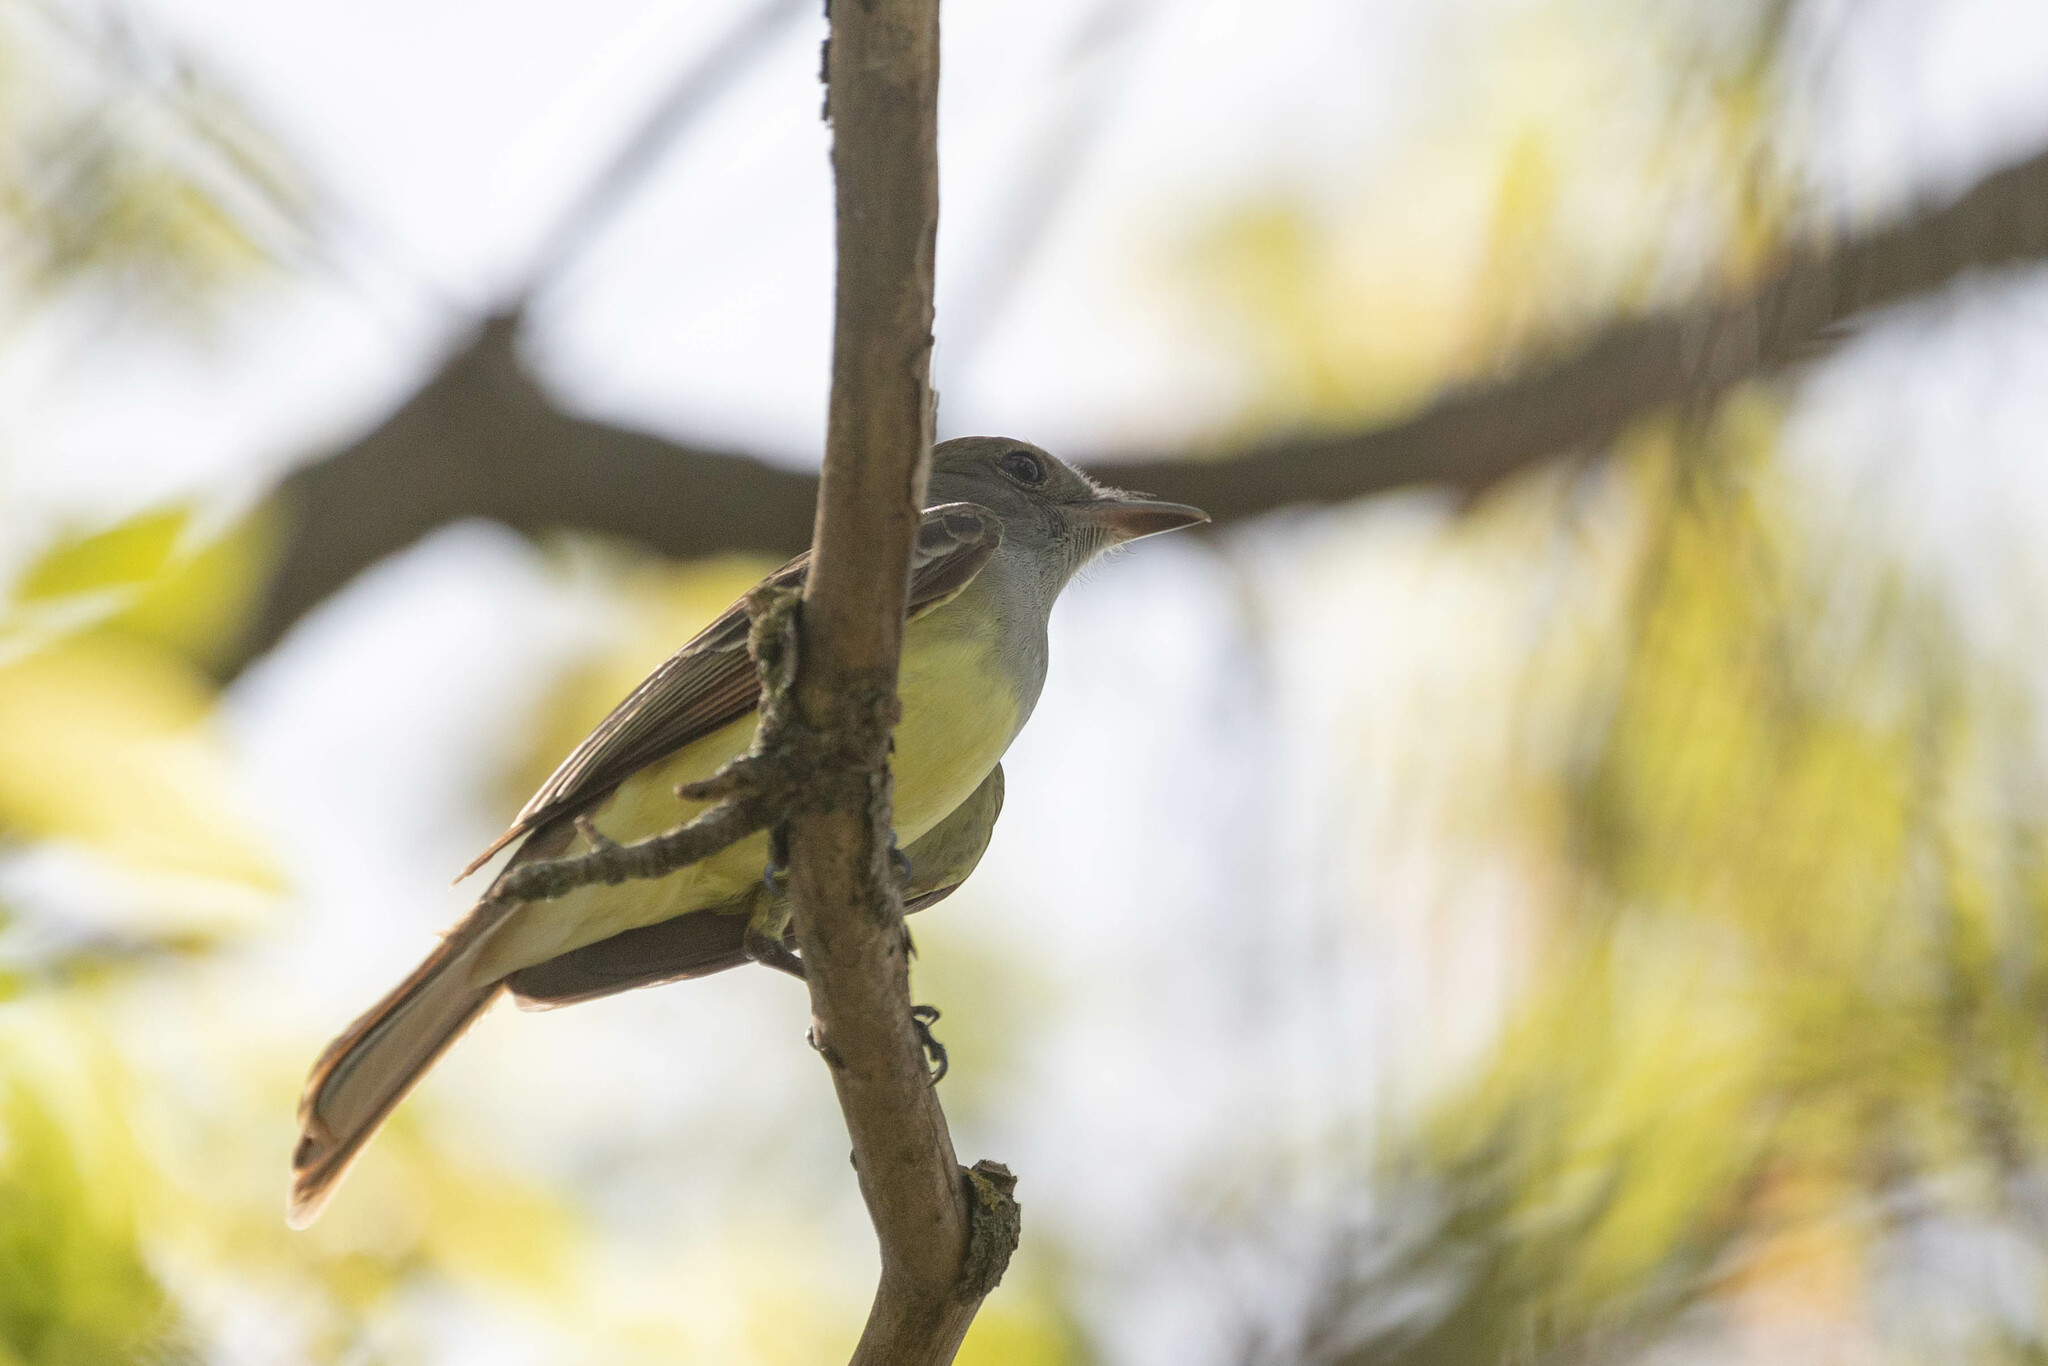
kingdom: Animalia
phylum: Chordata
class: Aves
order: Passeriformes
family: Tyrannidae
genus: Myiarchus
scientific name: Myiarchus crinitus
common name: Great crested flycatcher
